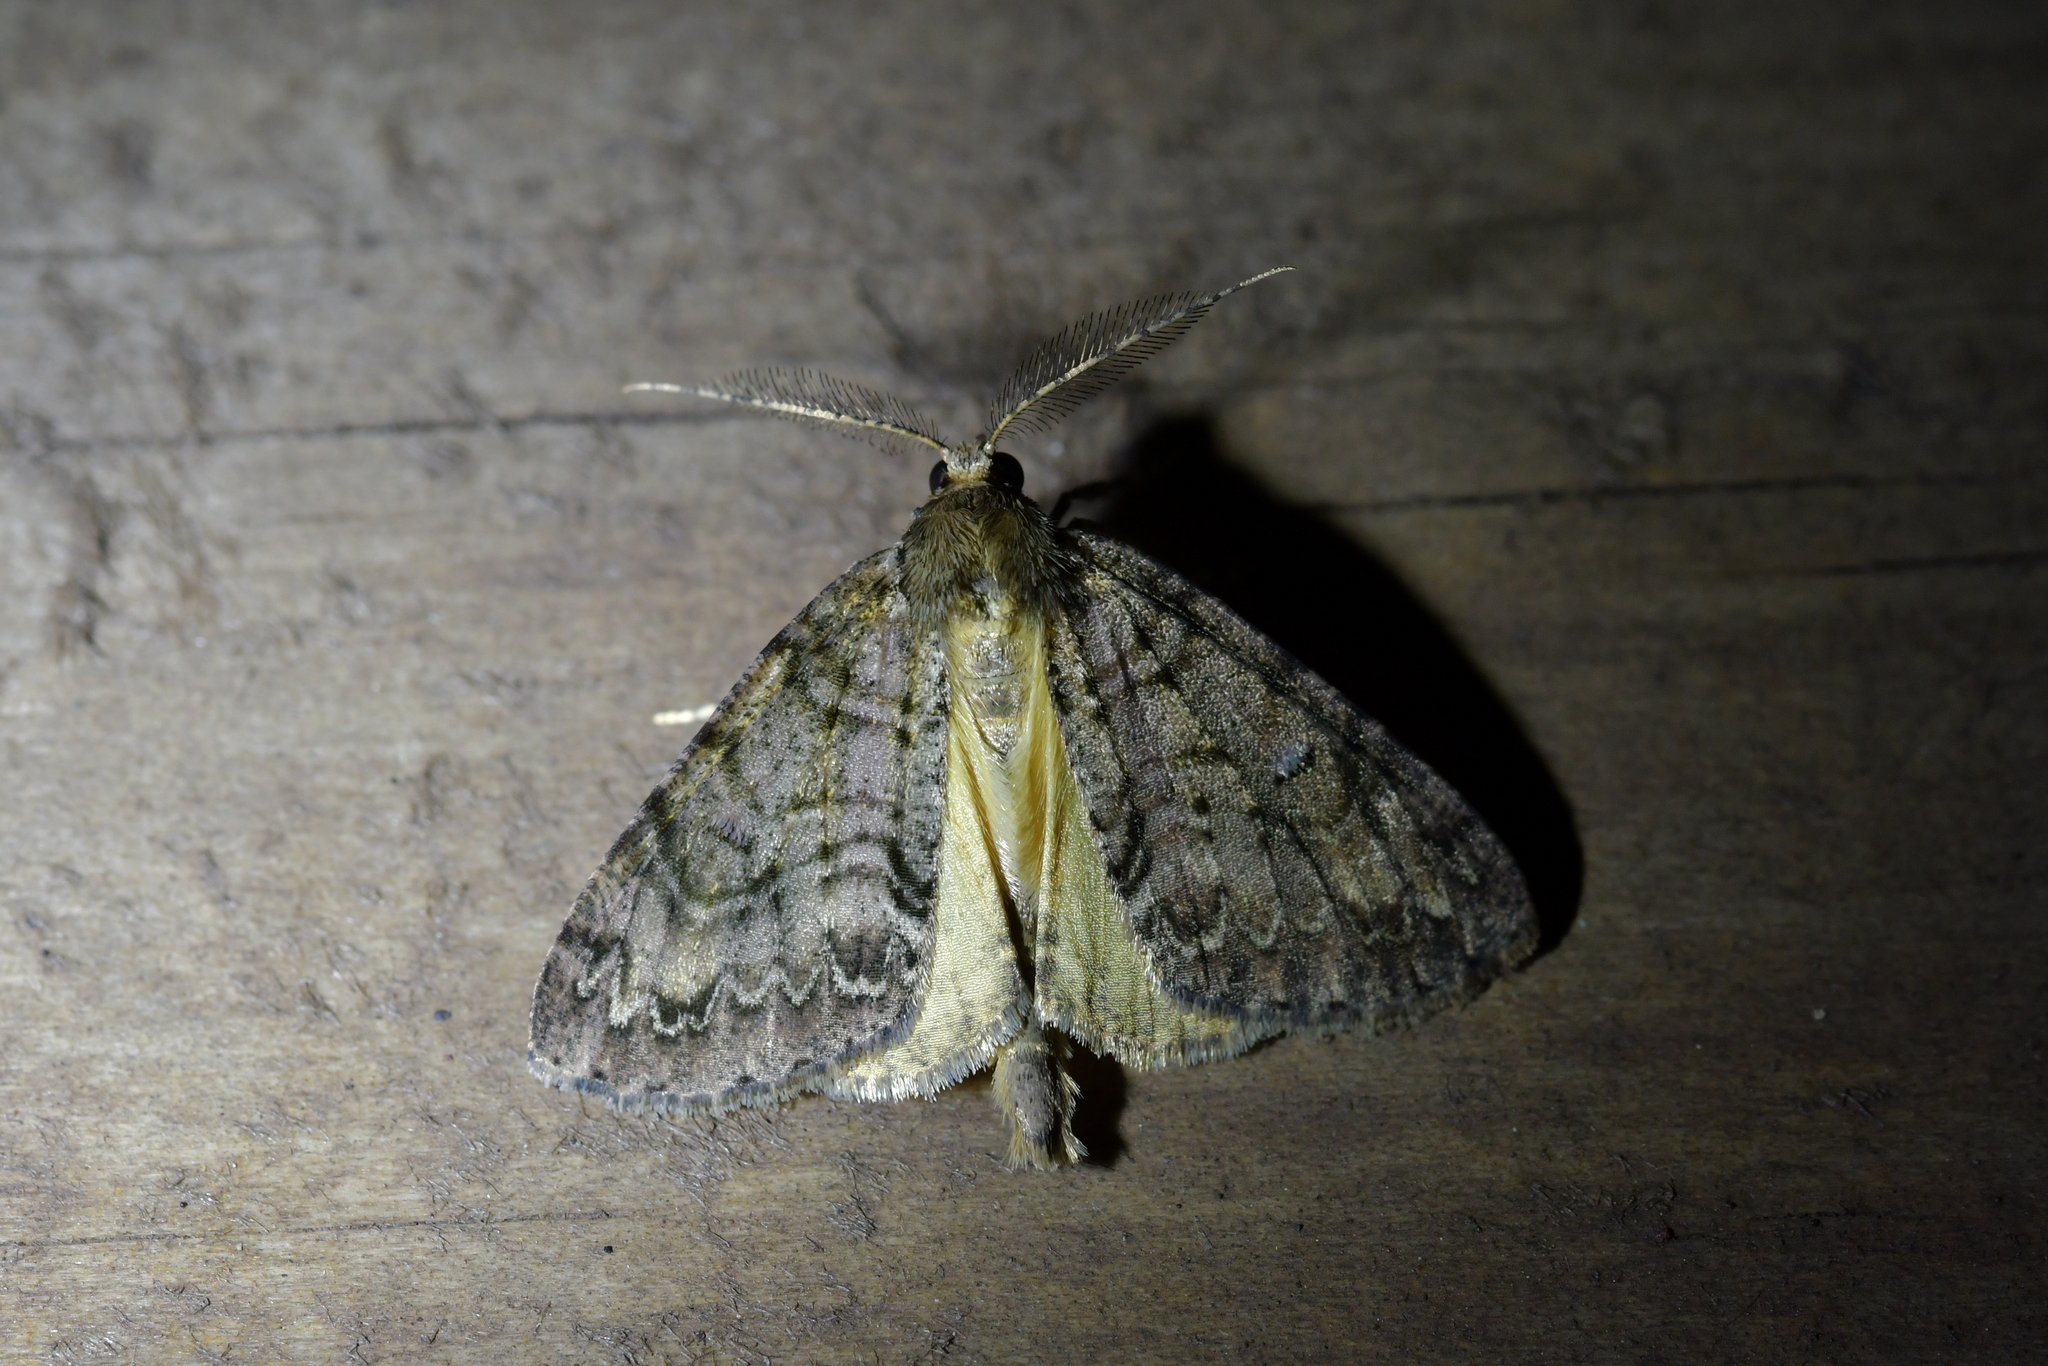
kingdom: Animalia
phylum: Arthropoda
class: Insecta
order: Lepidoptera
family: Geometridae
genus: Pseudocoremia
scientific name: Pseudocoremia suavis
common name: Common forest looper
